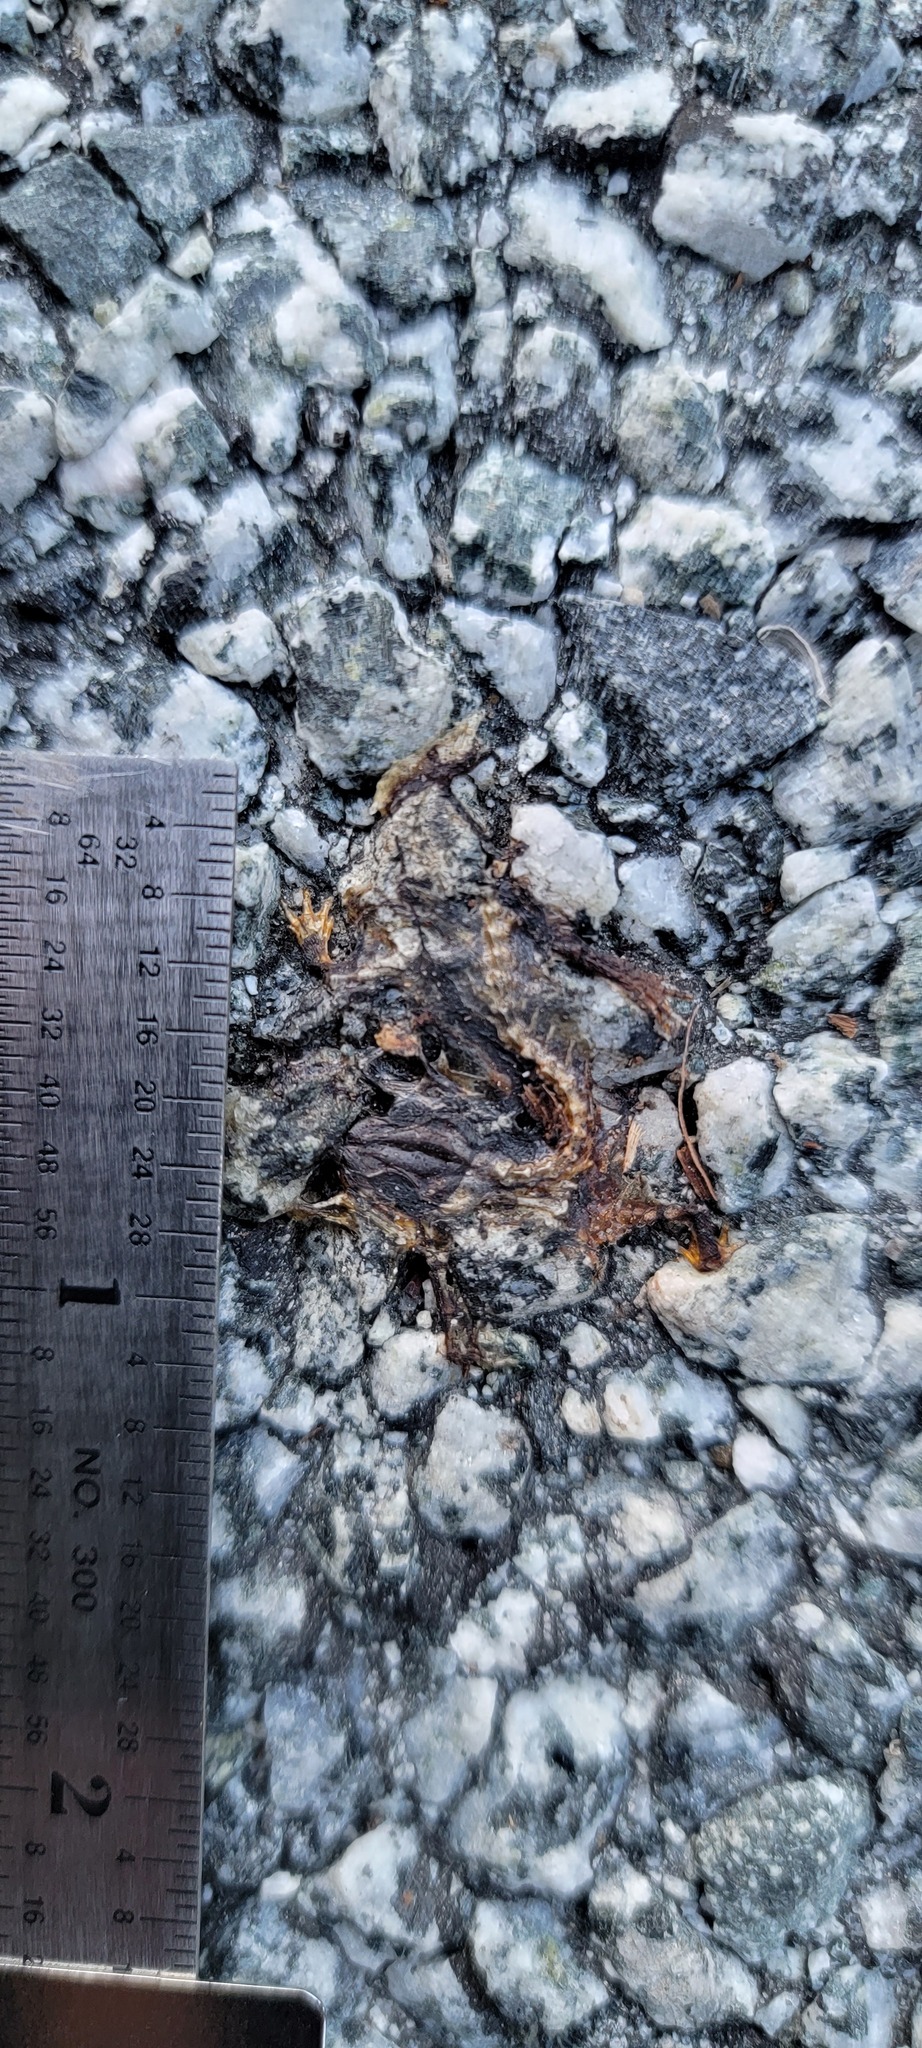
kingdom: Animalia
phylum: Chordata
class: Amphibia
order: Caudata
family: Salamandridae
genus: Taricha
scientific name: Taricha
